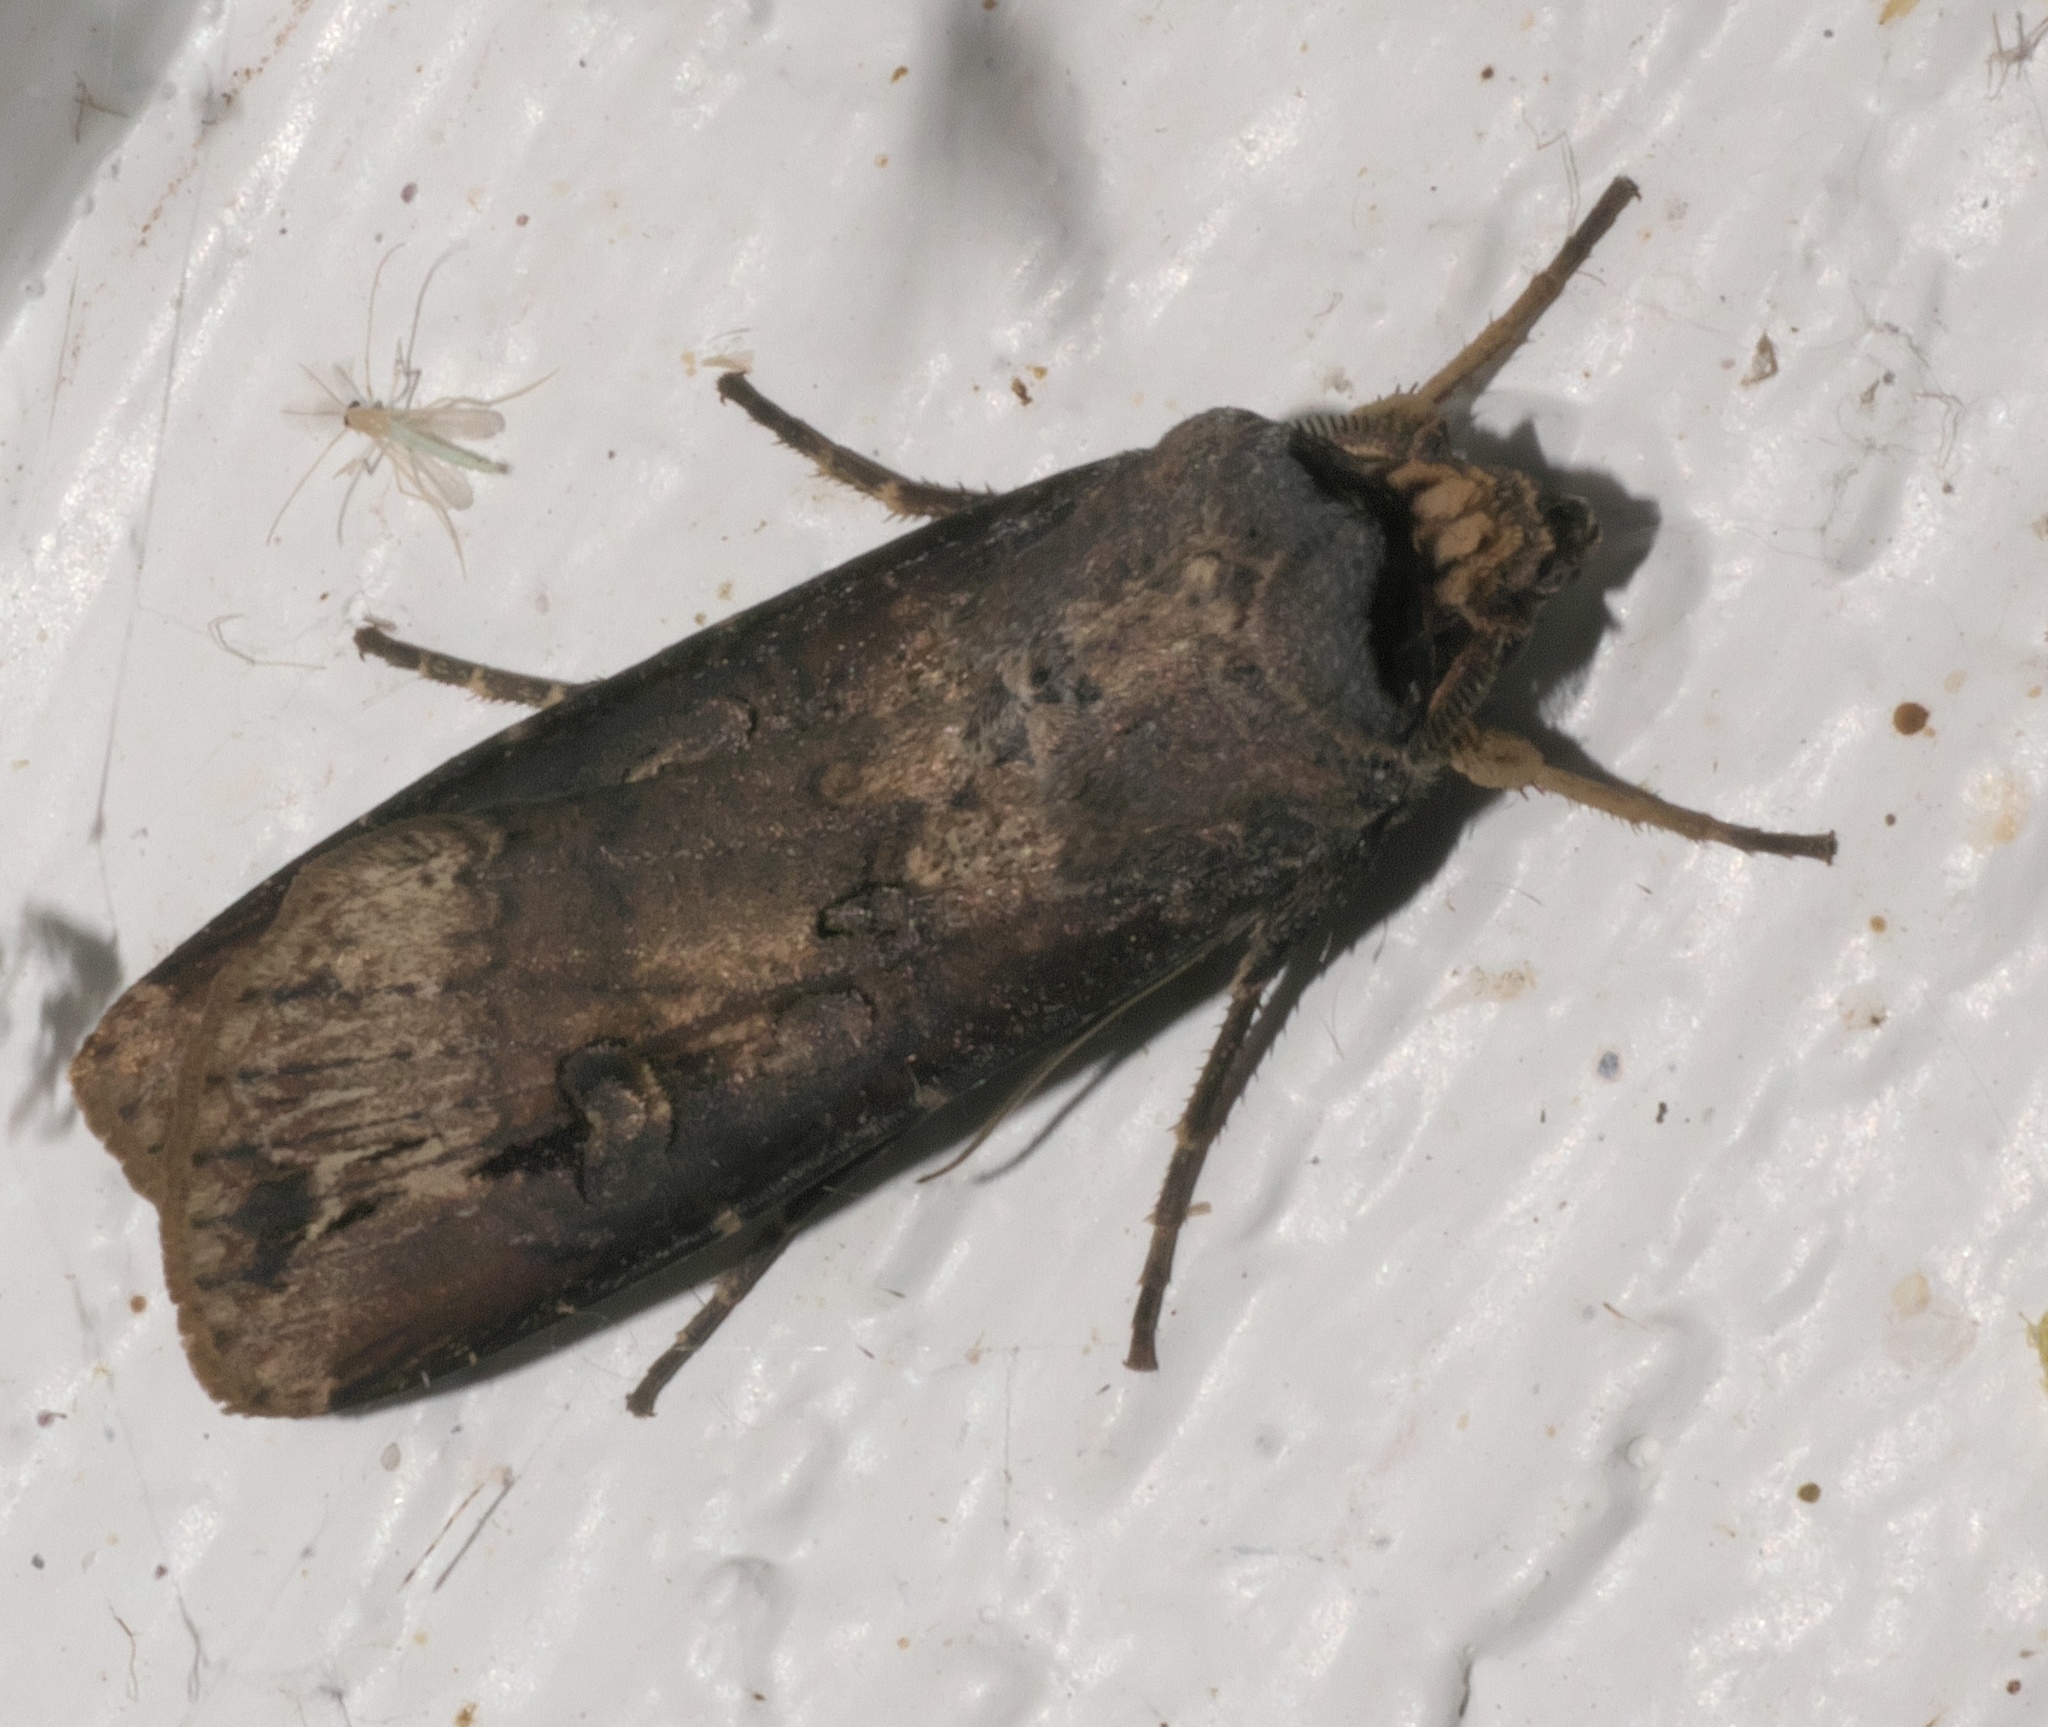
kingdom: Animalia
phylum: Arthropoda
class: Insecta
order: Lepidoptera
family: Noctuidae
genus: Agrotis
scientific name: Agrotis ipsilon
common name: Dark sword-grass
